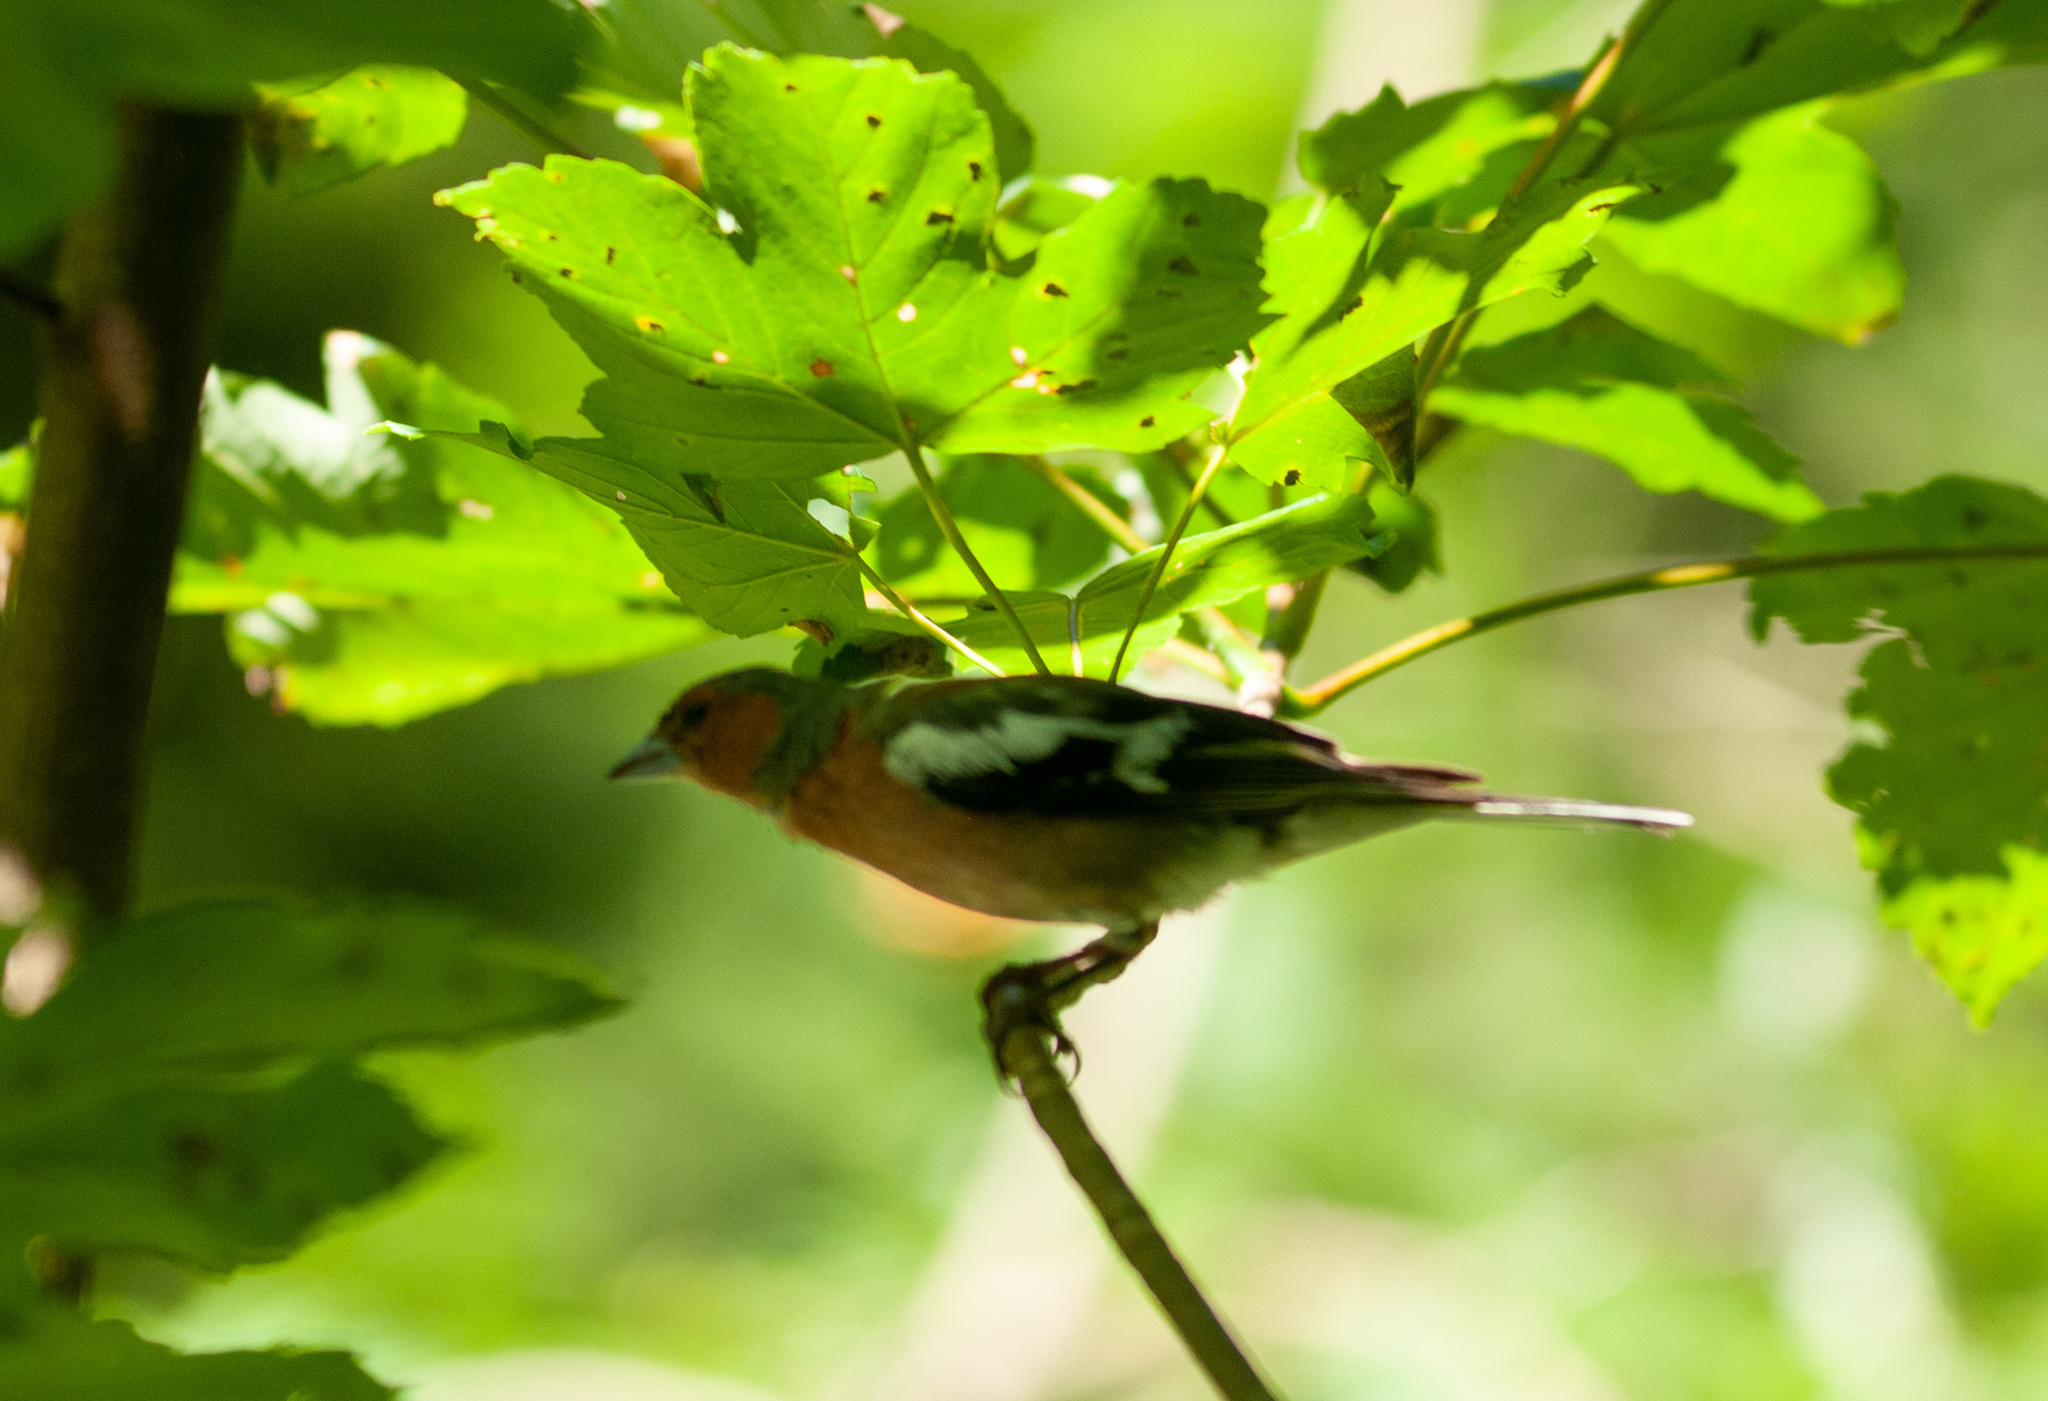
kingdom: Animalia
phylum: Chordata
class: Aves
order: Passeriformes
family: Fringillidae
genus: Fringilla
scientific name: Fringilla coelebs
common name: Common chaffinch
